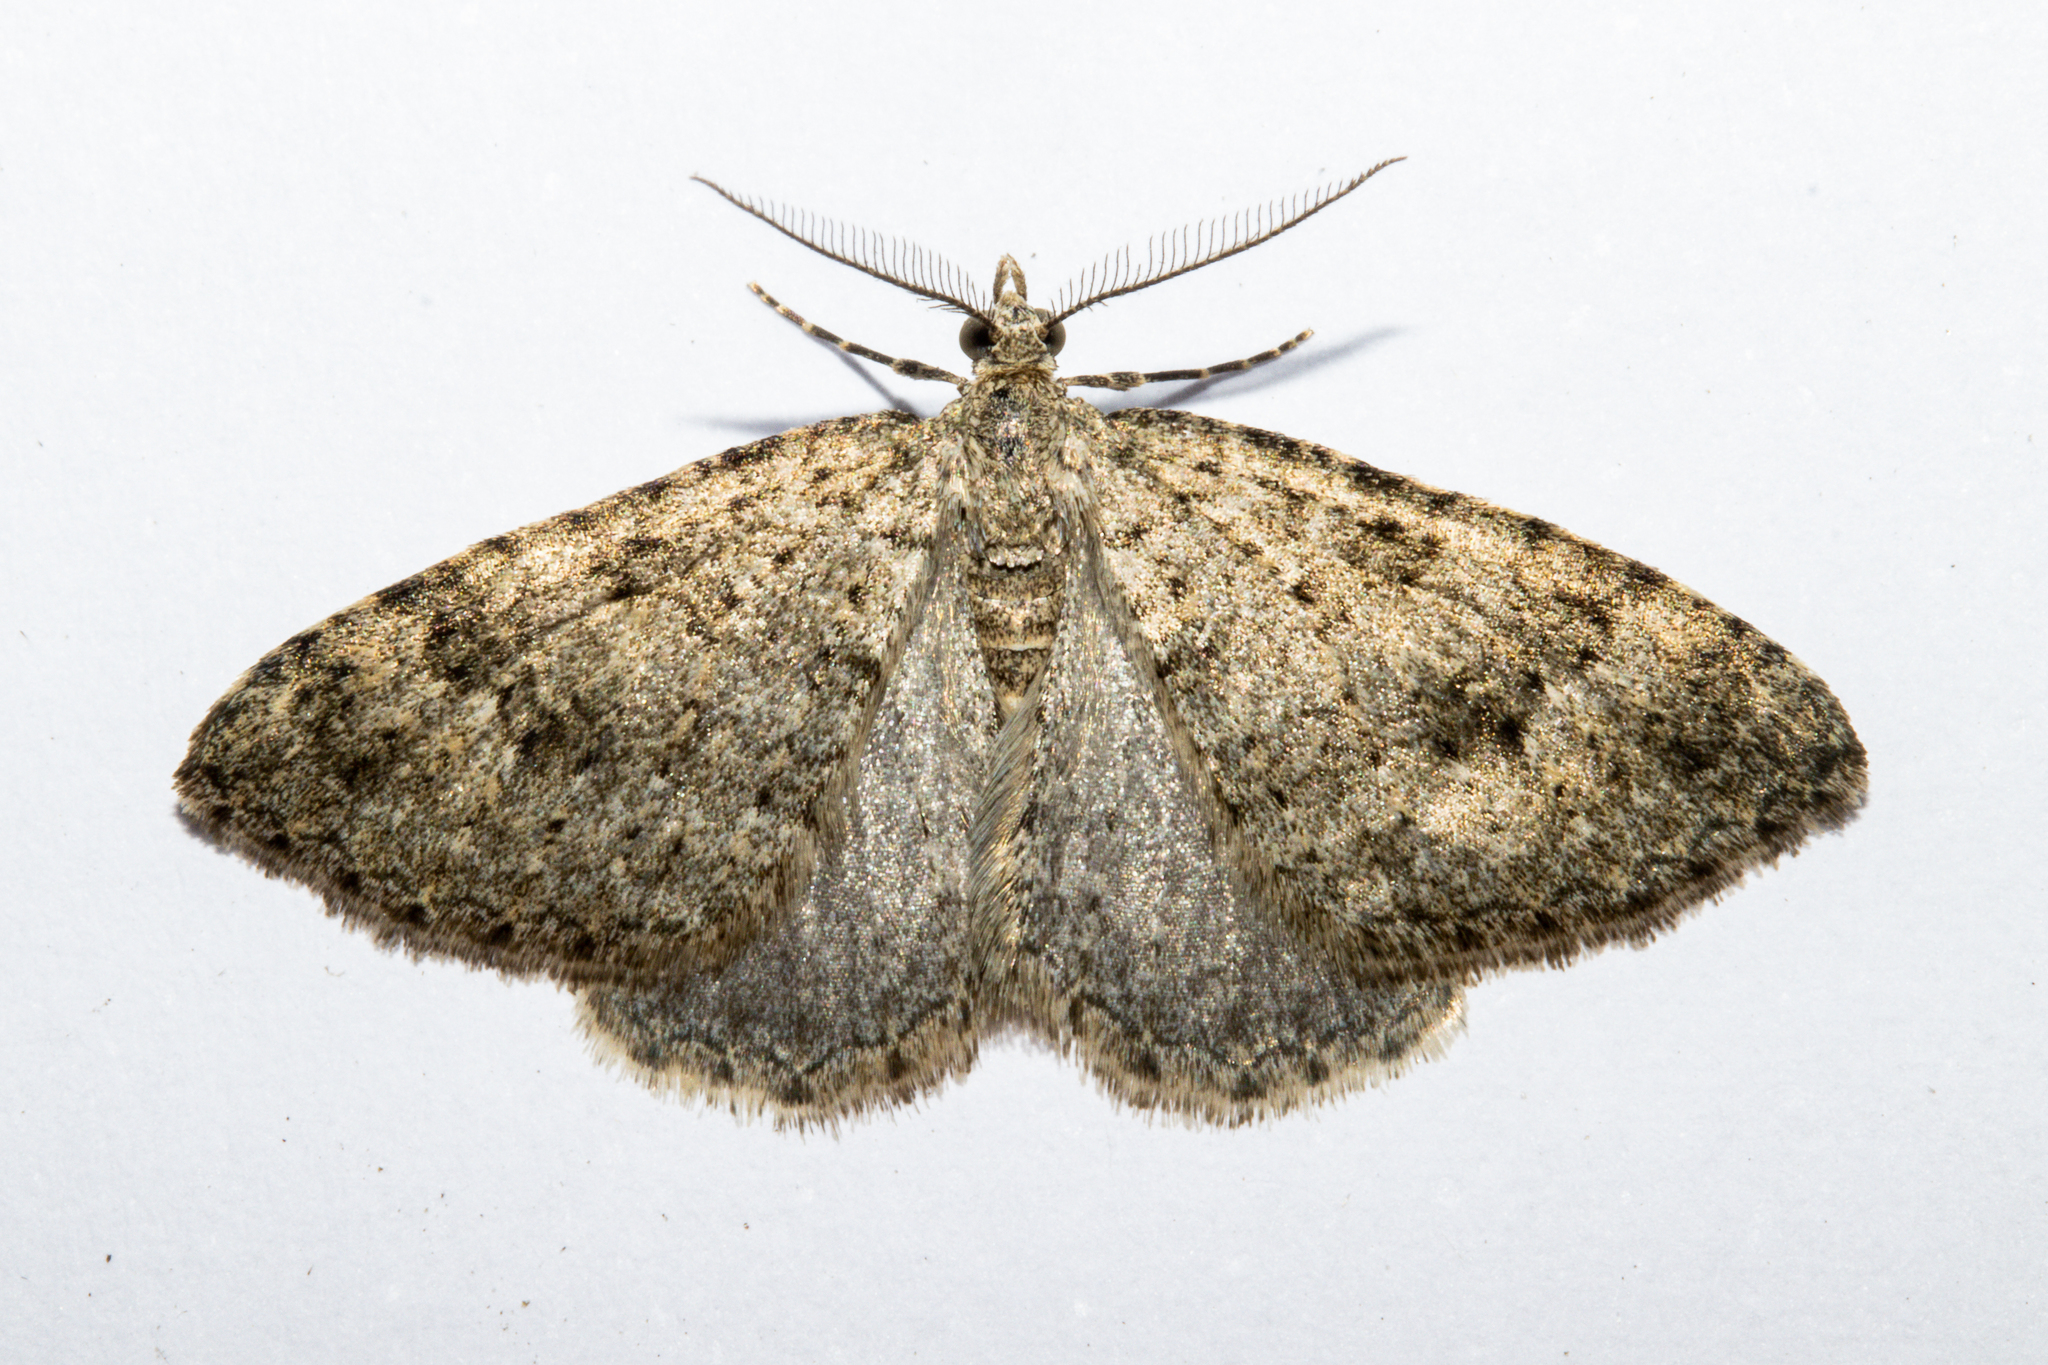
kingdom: Animalia
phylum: Arthropoda
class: Insecta
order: Lepidoptera
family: Geometridae
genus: Helastia
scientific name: Helastia corcularia
